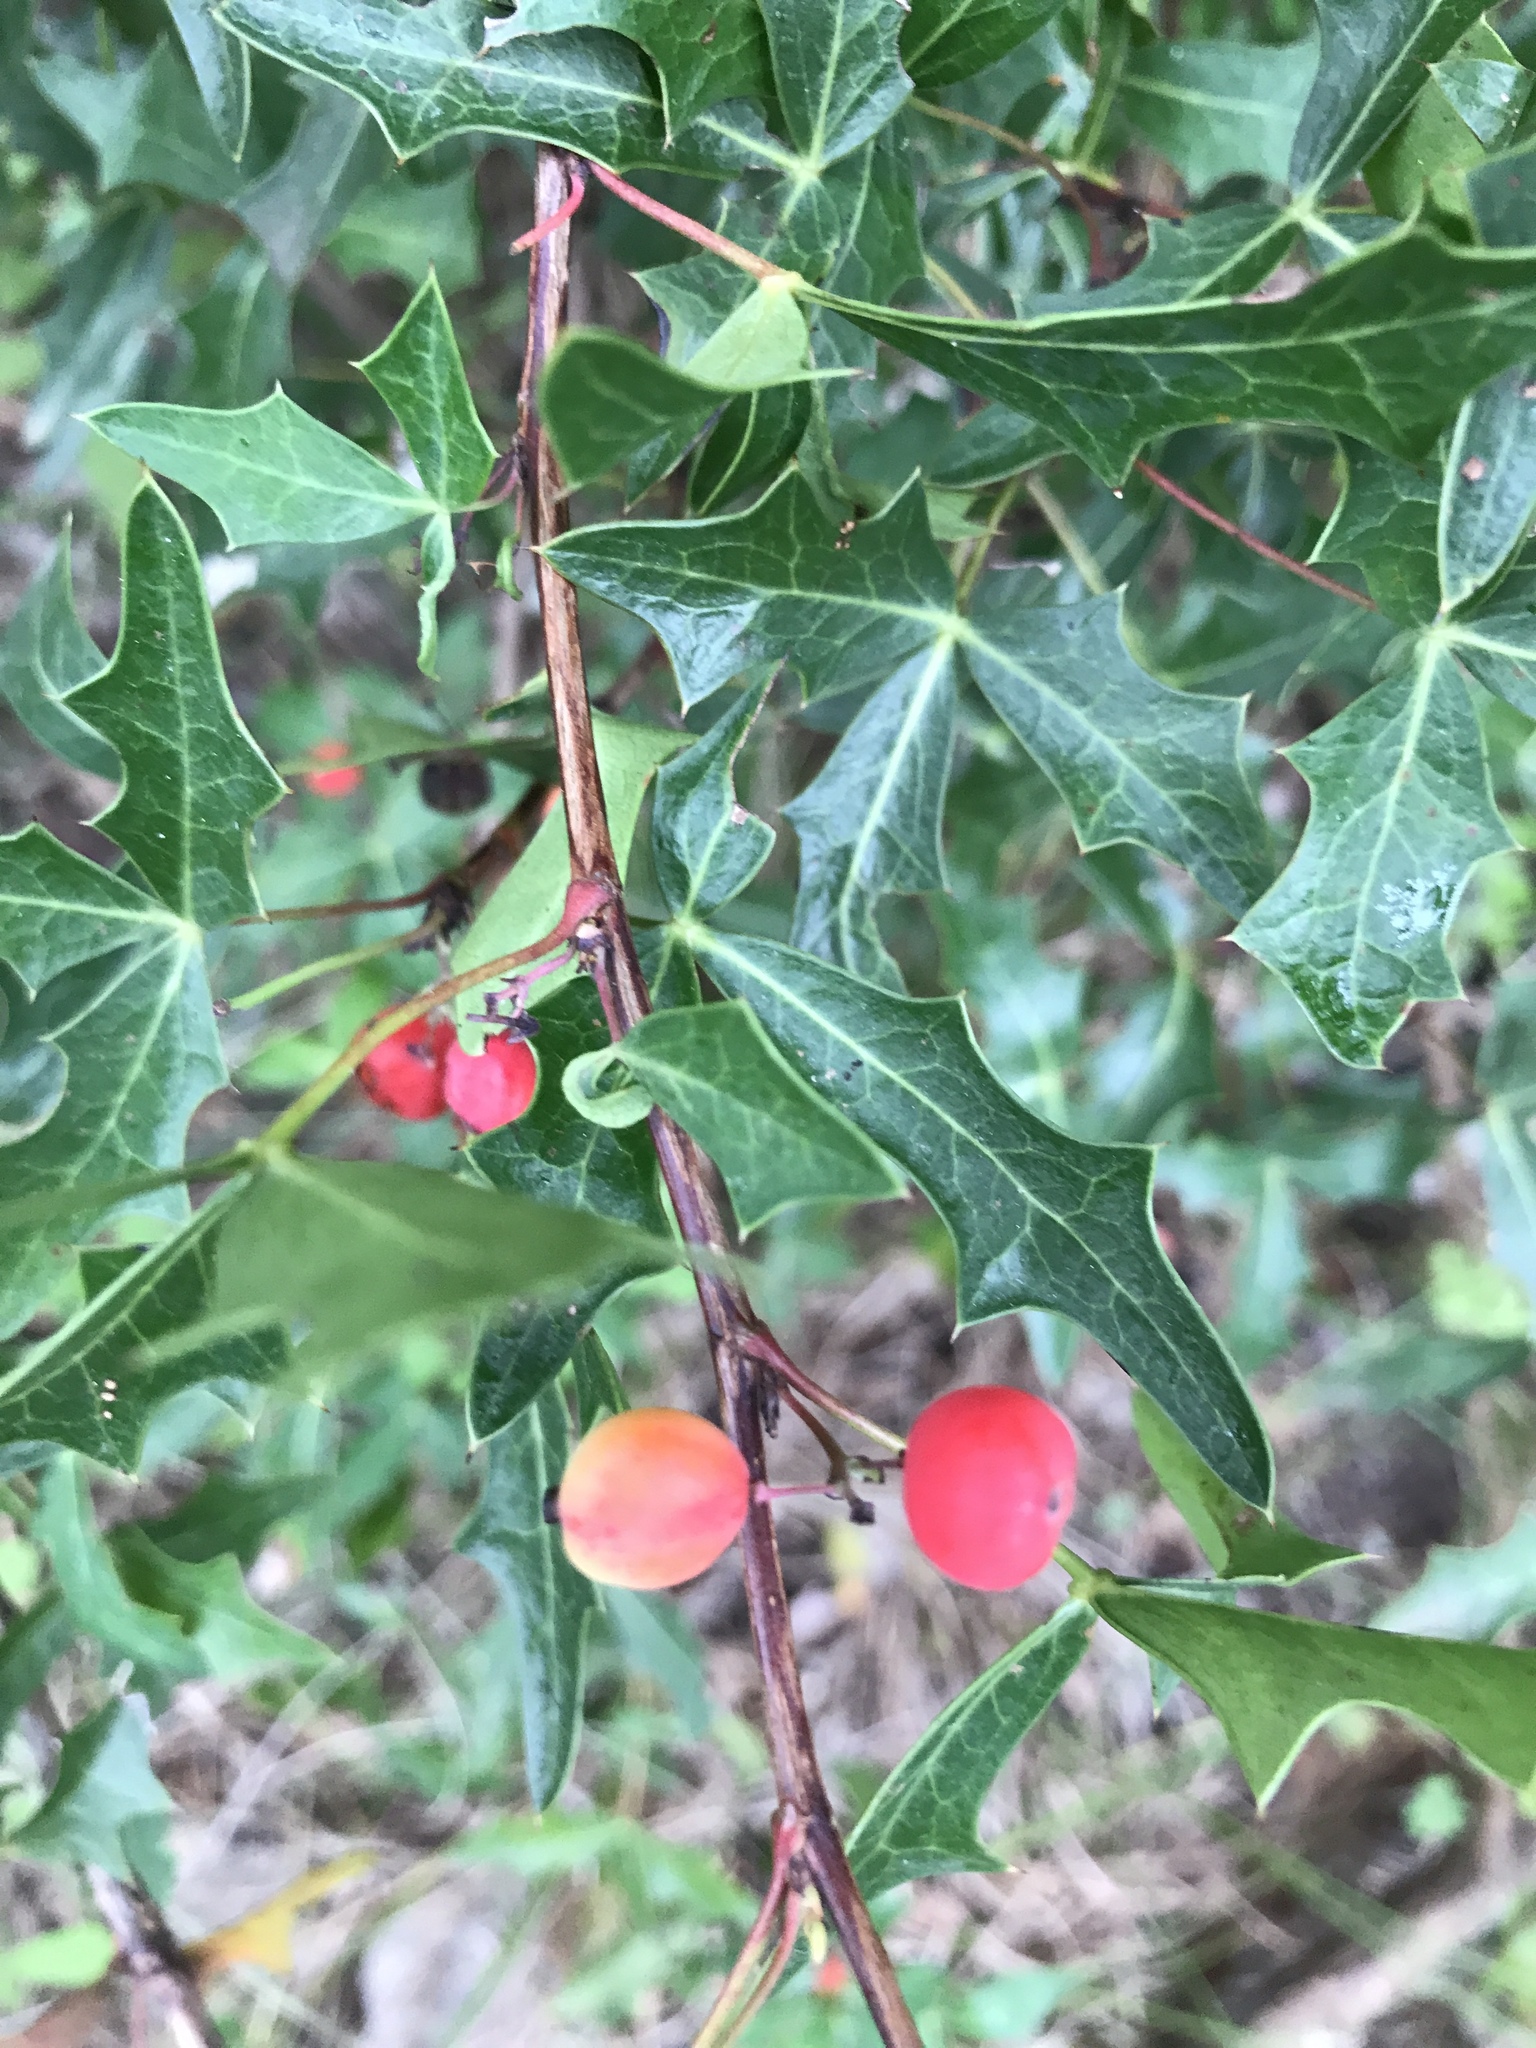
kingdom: Plantae
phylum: Tracheophyta
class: Magnoliopsida
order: Ranunculales
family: Berberidaceae
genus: Alloberberis
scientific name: Alloberberis trifoliolata
